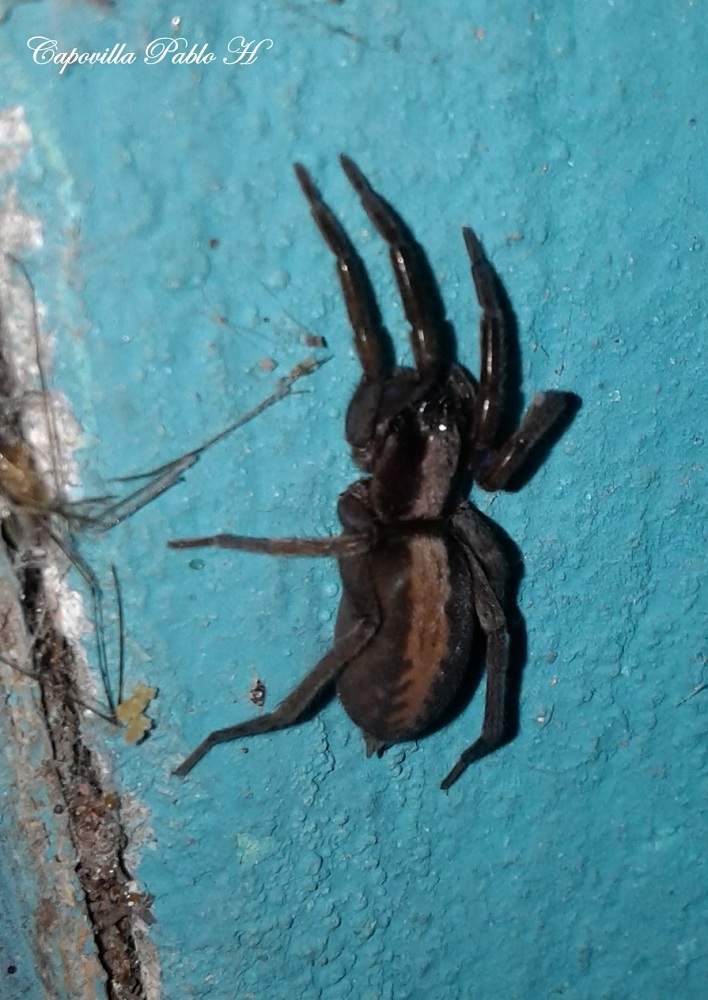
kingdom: Animalia
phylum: Arthropoda
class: Arachnida
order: Araneae
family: Miturgidae
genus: Teminius
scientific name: Teminius insularis
